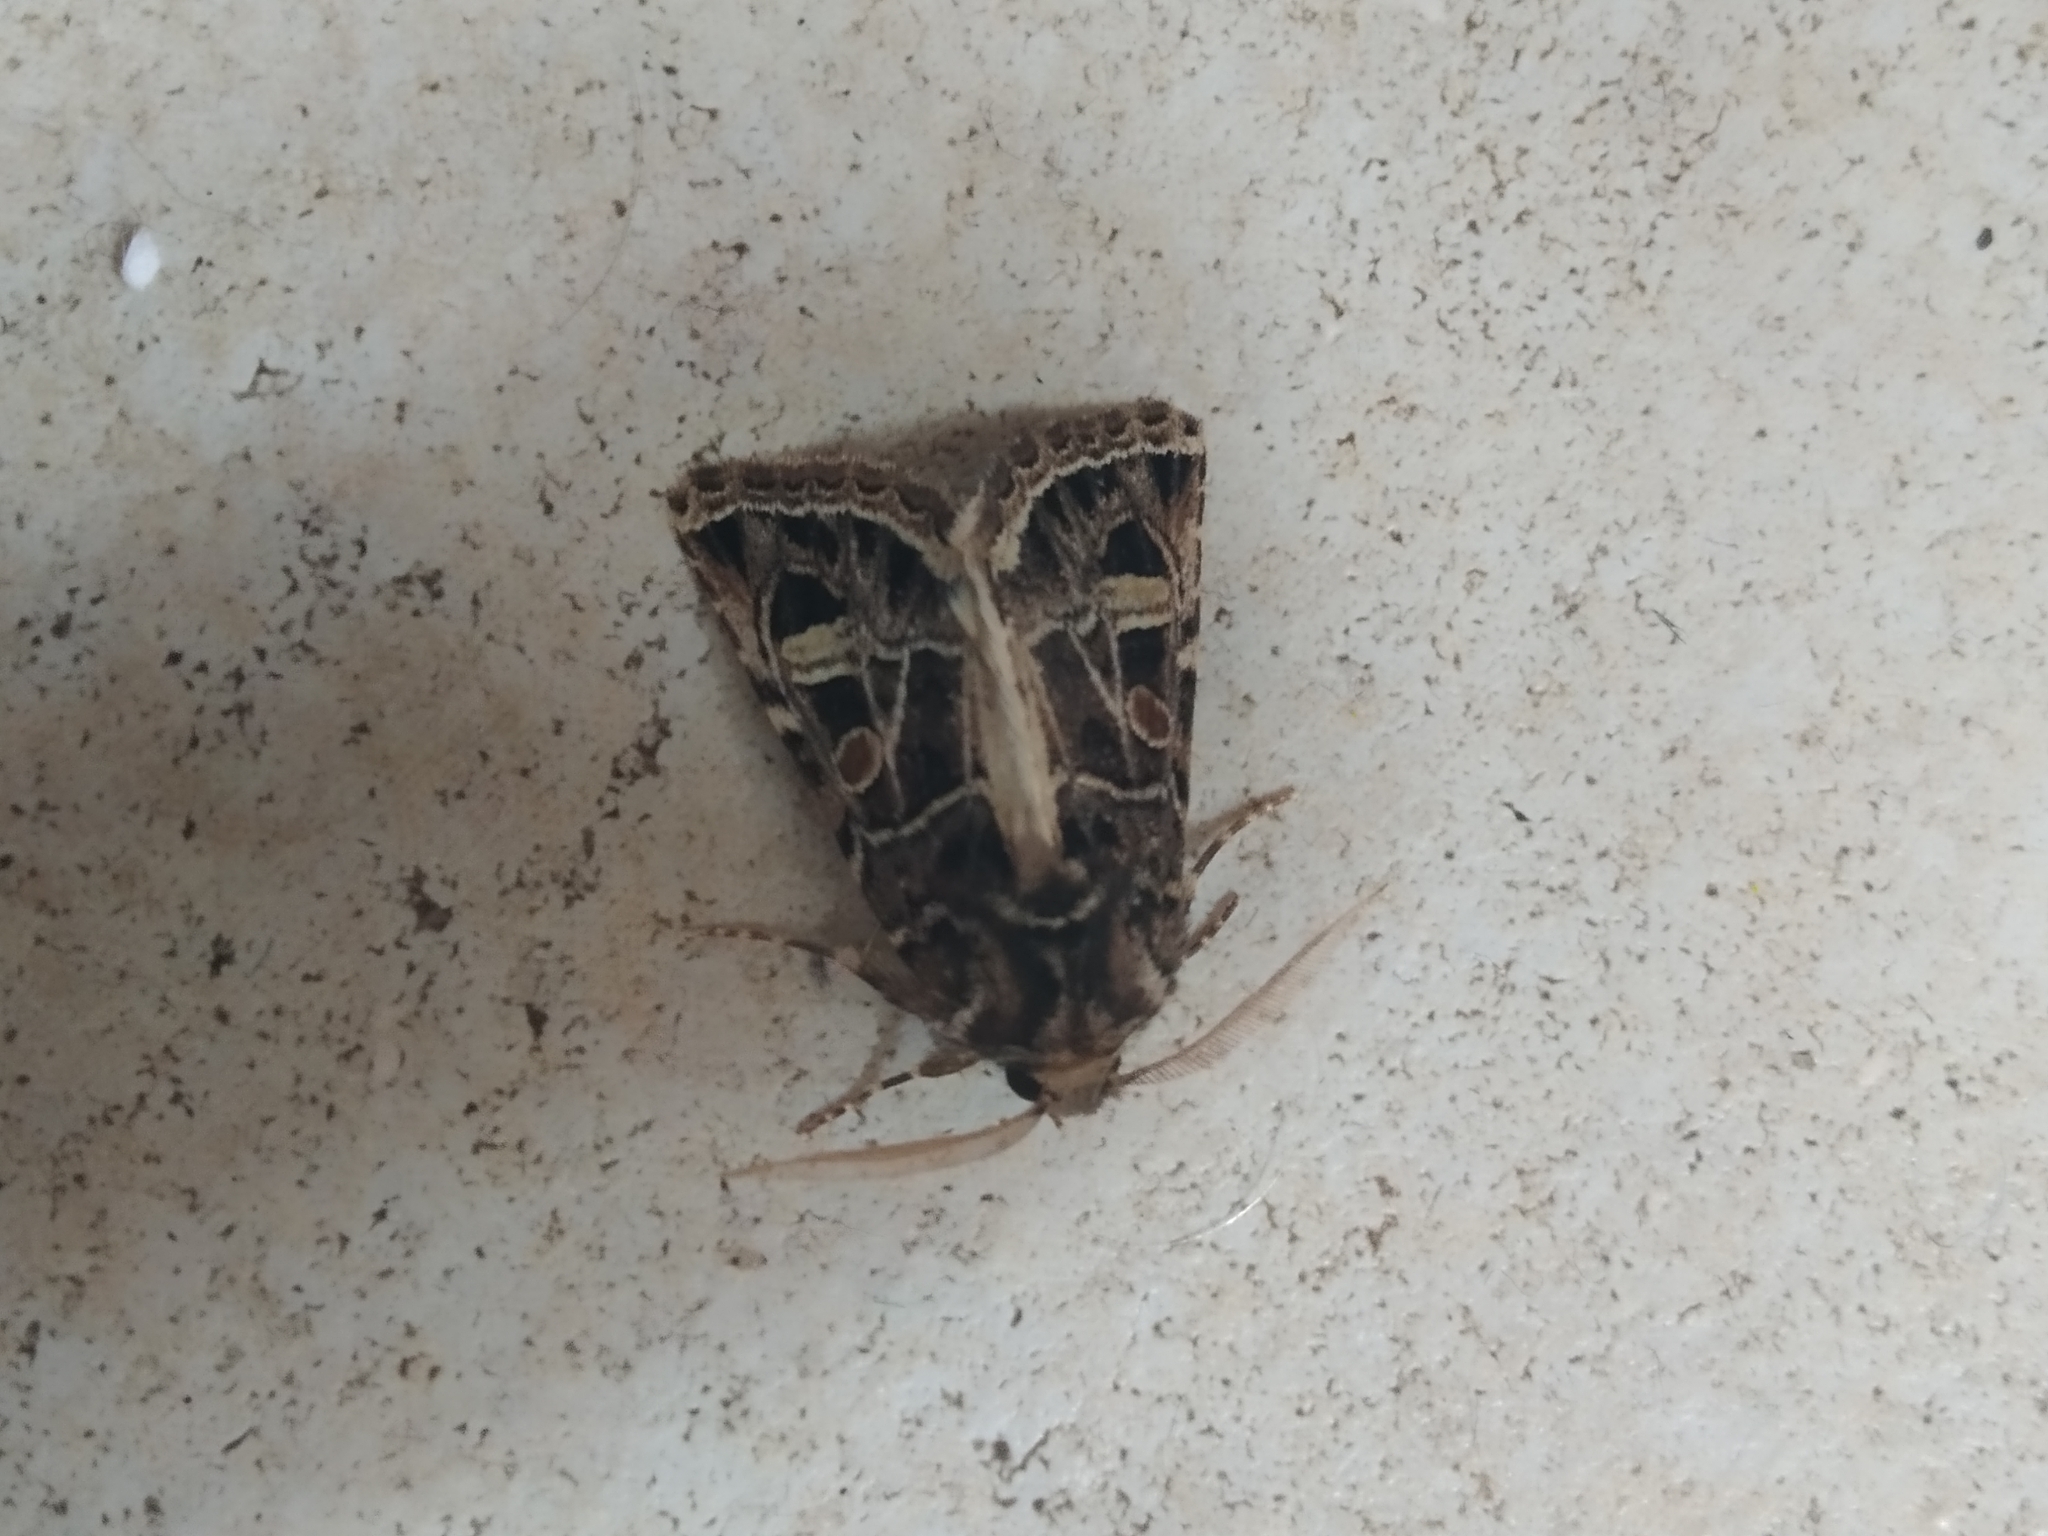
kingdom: Animalia
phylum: Arthropoda
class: Insecta
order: Lepidoptera
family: Noctuidae
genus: Leucochlaena
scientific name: Leucochlaena oditis
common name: Beautiful gothic
